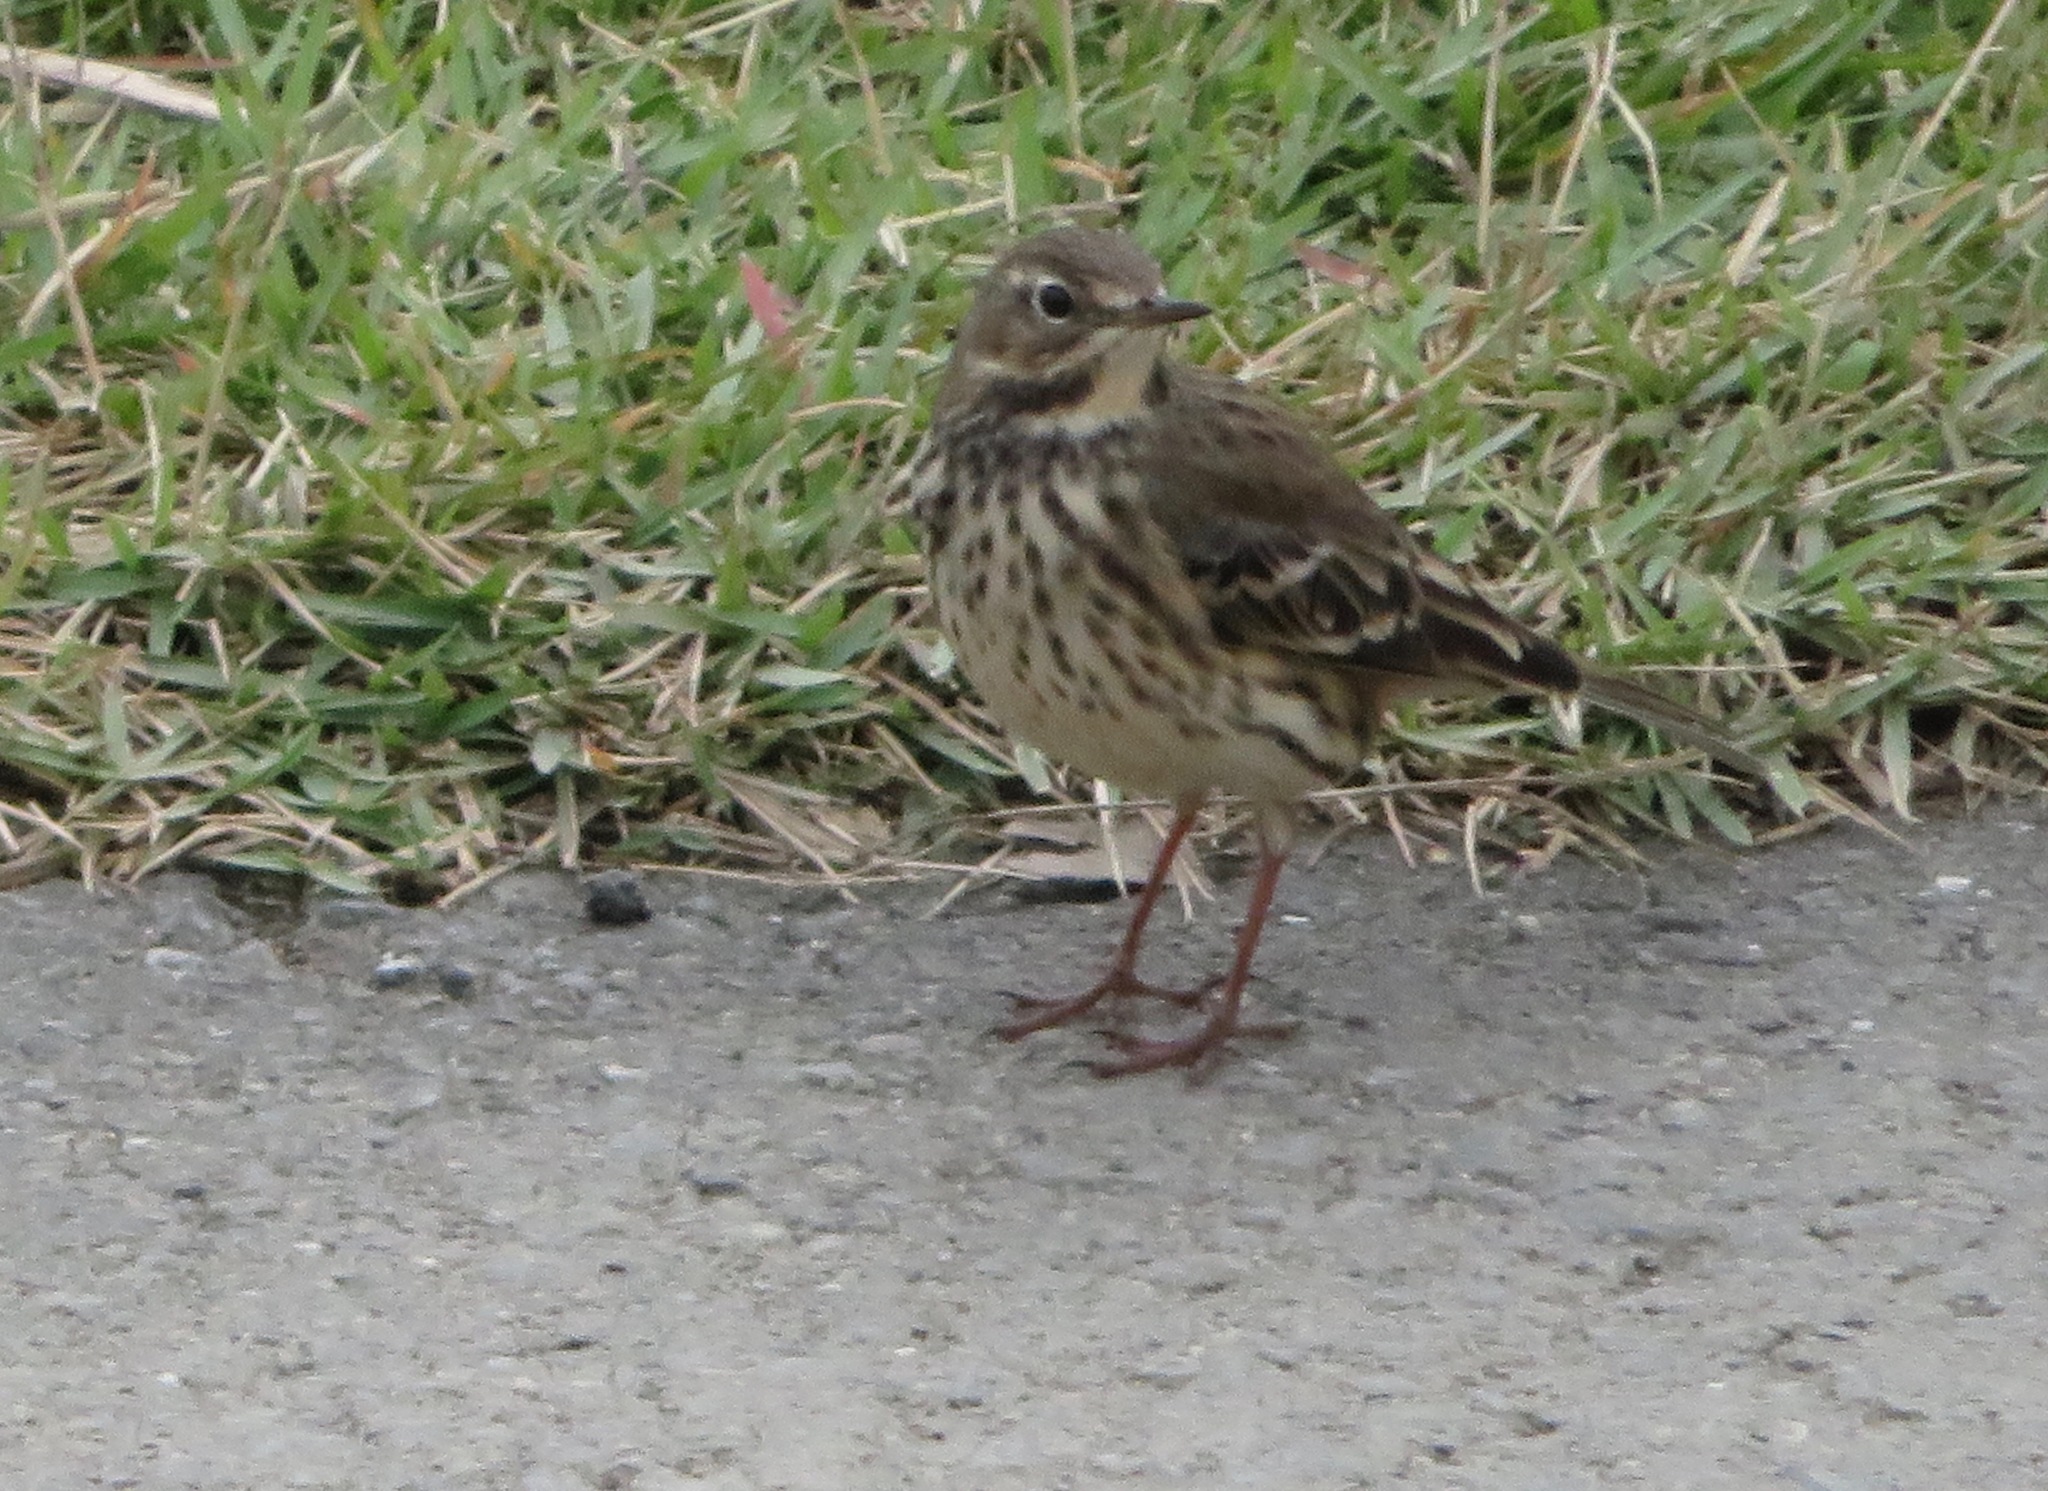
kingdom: Animalia
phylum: Chordata
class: Aves
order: Passeriformes
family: Motacillidae
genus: Anthus
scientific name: Anthus rubescens
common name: Buff-bellied pipit
